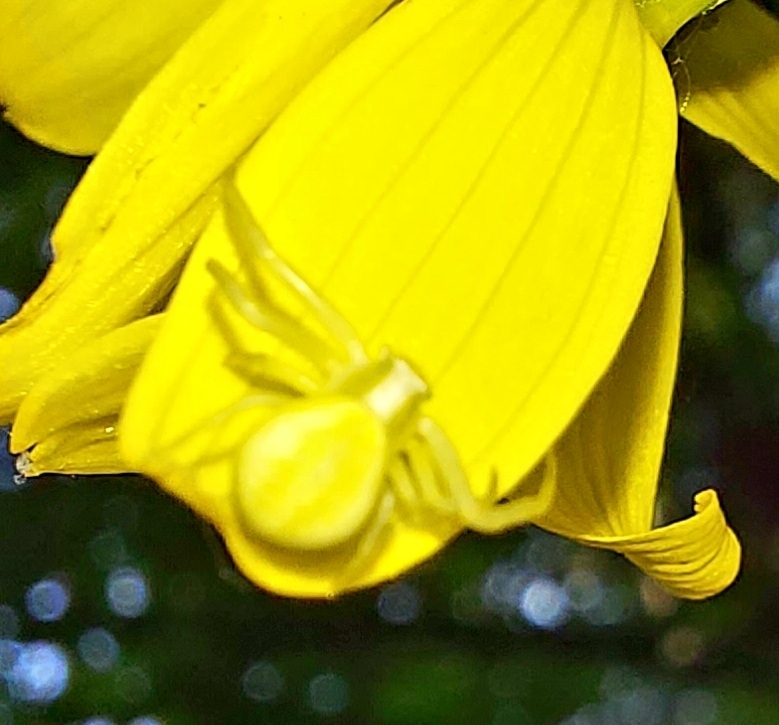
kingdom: Animalia
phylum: Arthropoda
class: Arachnida
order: Araneae
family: Thomisidae
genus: Misumena
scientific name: Misumena vatia
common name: Goldenrod crab spider
